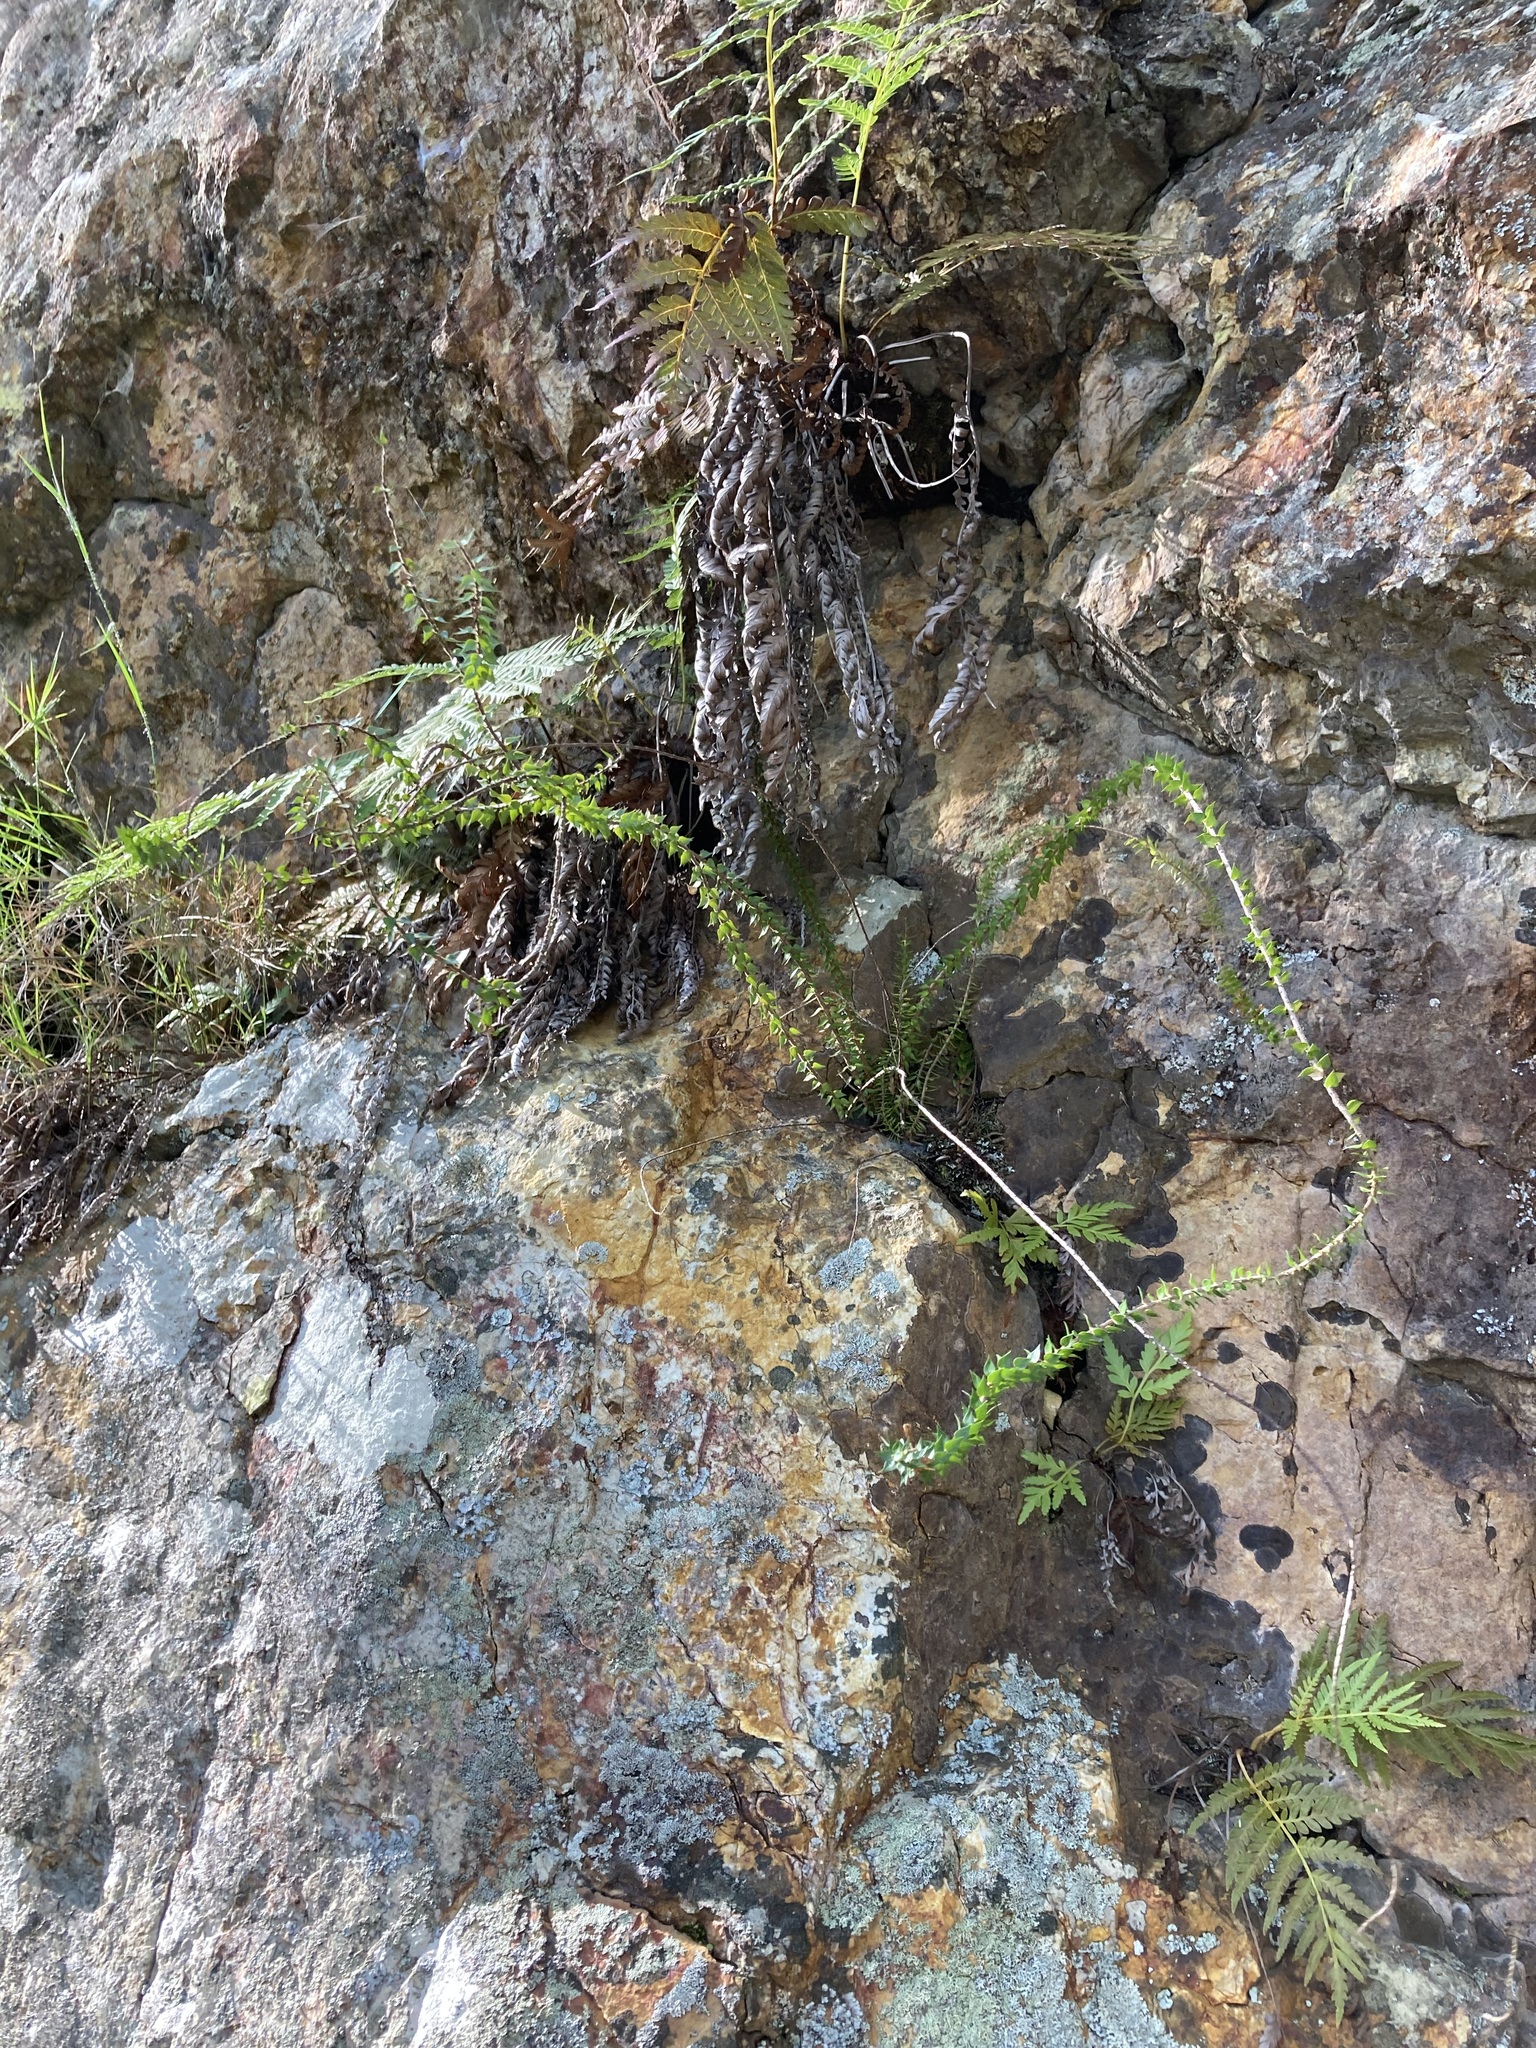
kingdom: Plantae
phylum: Tracheophyta
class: Magnoliopsida
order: Ericales
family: Ericaceae
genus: Epacris
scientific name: Epacris pulchella
